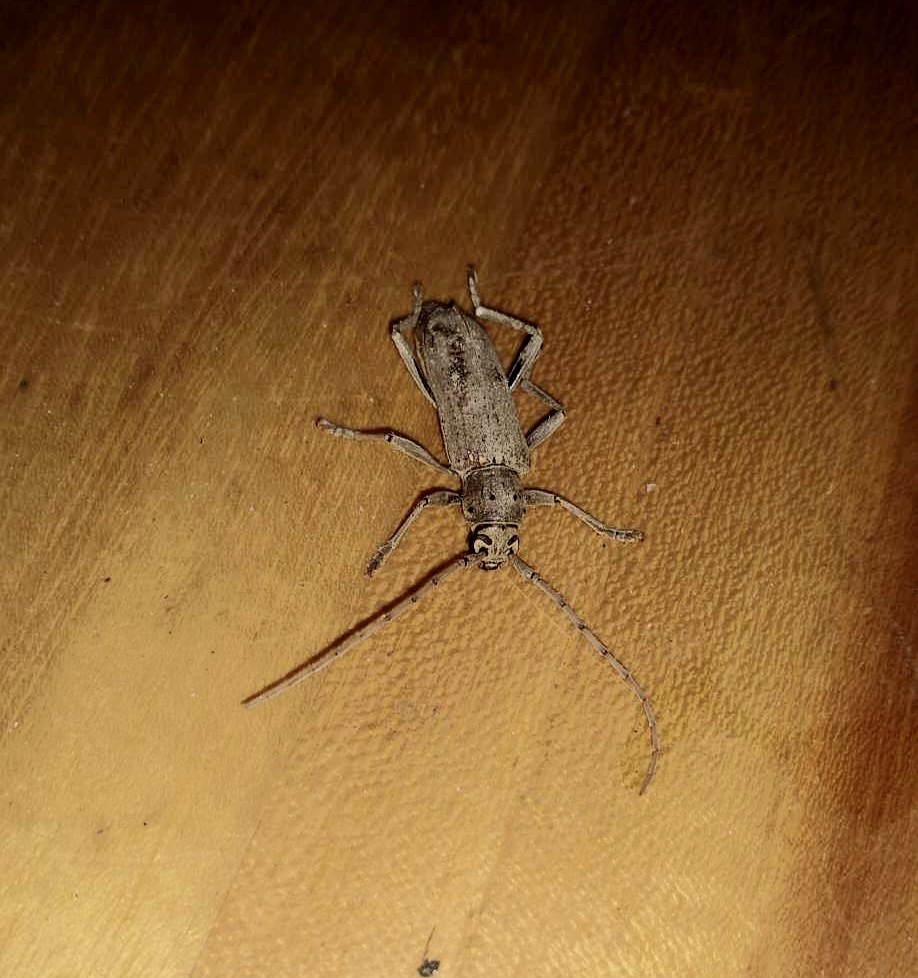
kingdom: Animalia
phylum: Arthropoda
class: Insecta
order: Coleoptera
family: Cerambycidae
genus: Eburia
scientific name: Eburia porulosa
